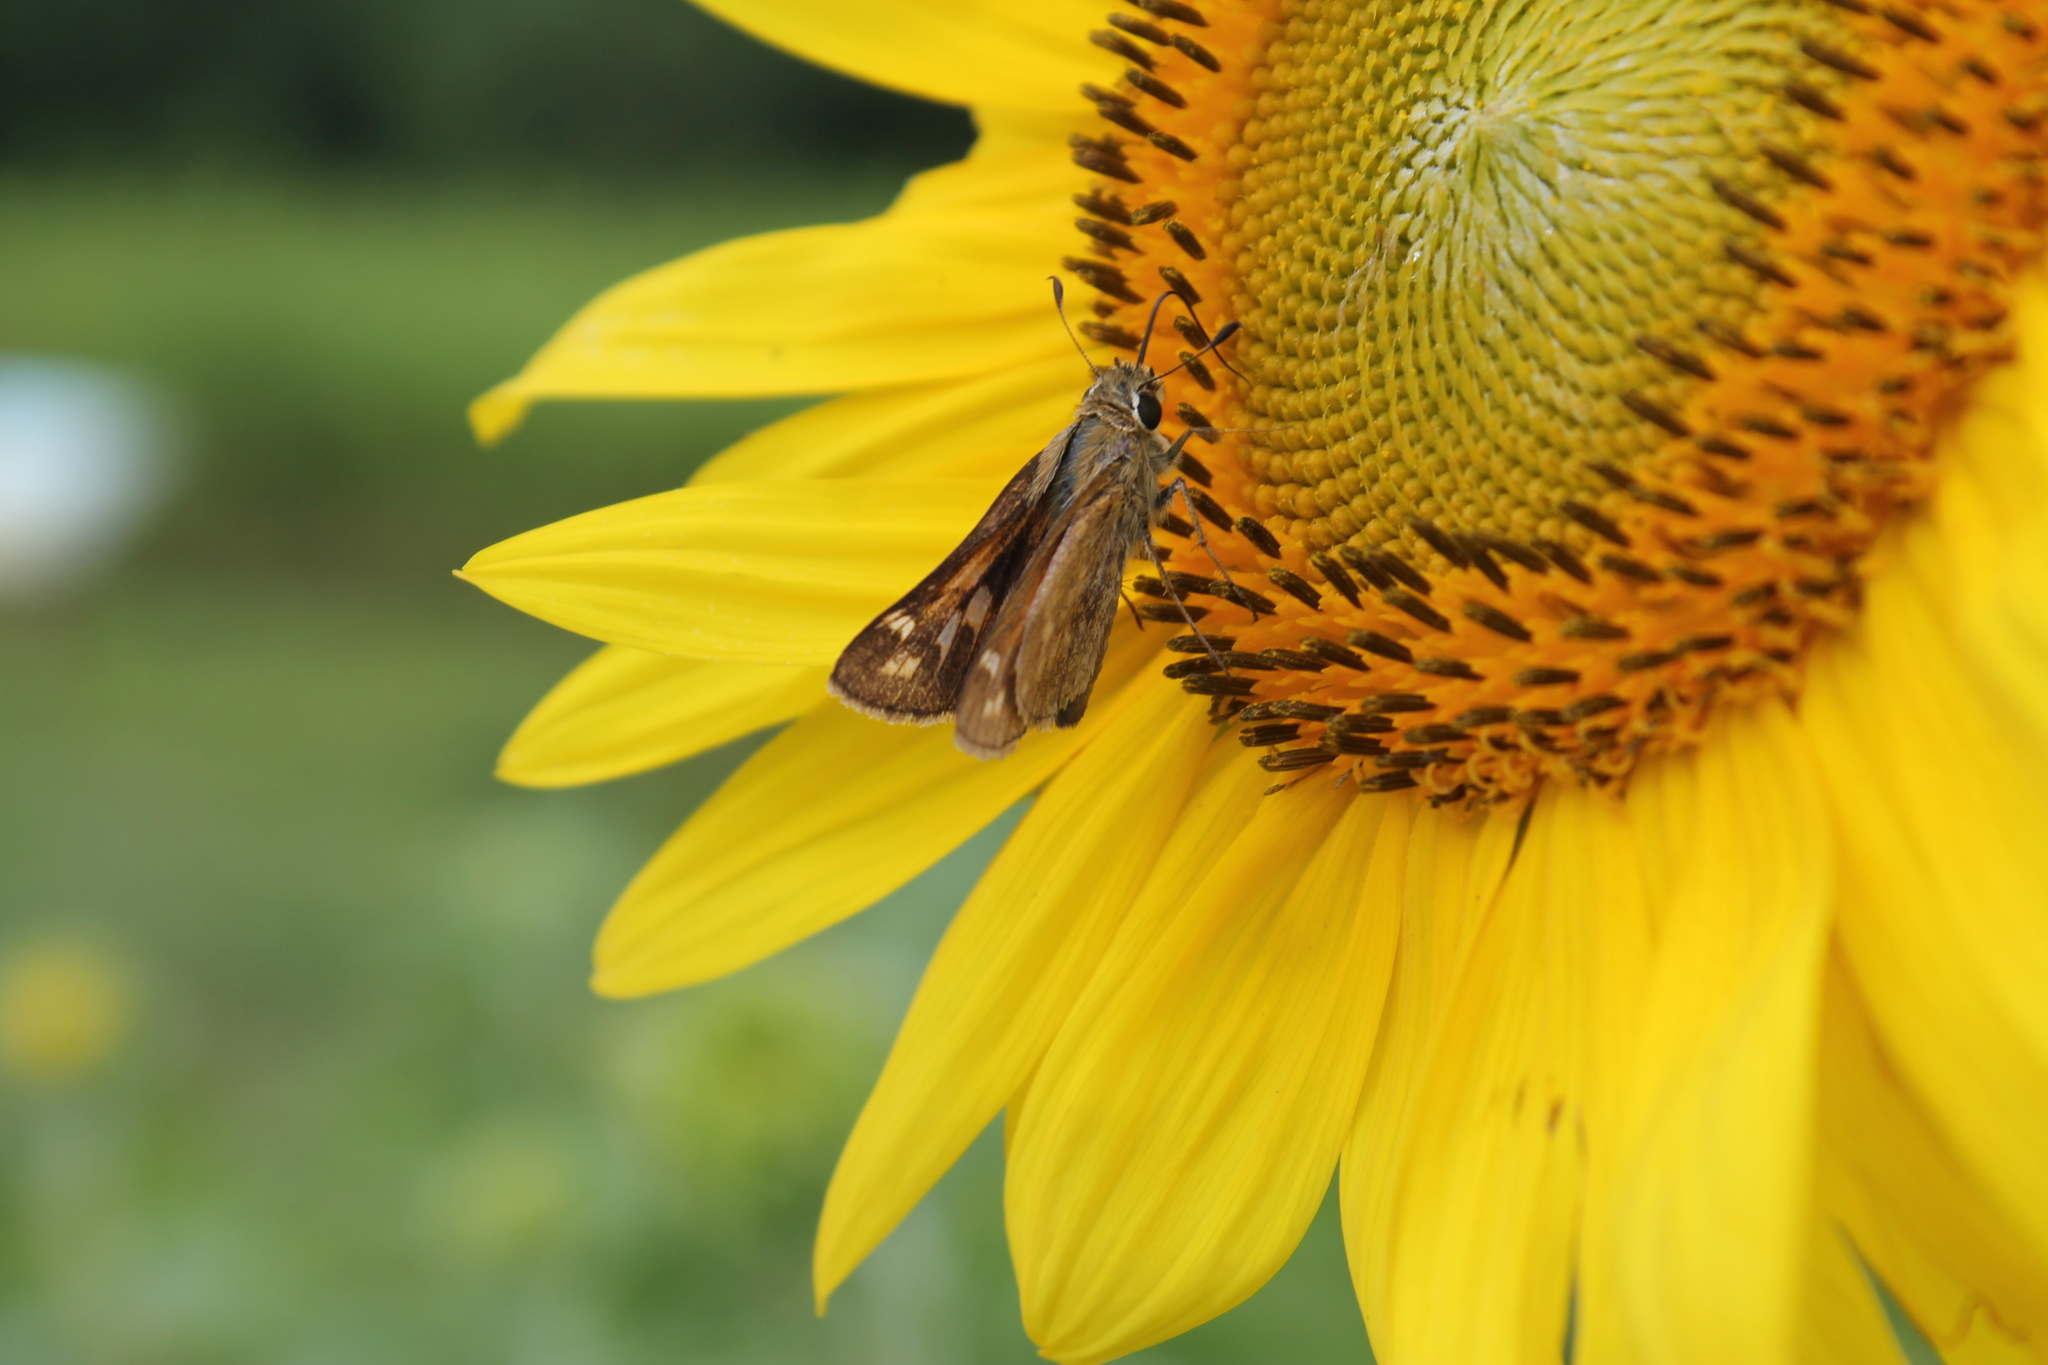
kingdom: Animalia
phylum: Arthropoda
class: Insecta
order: Lepidoptera
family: Hesperiidae
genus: Atalopedes
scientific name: Atalopedes
